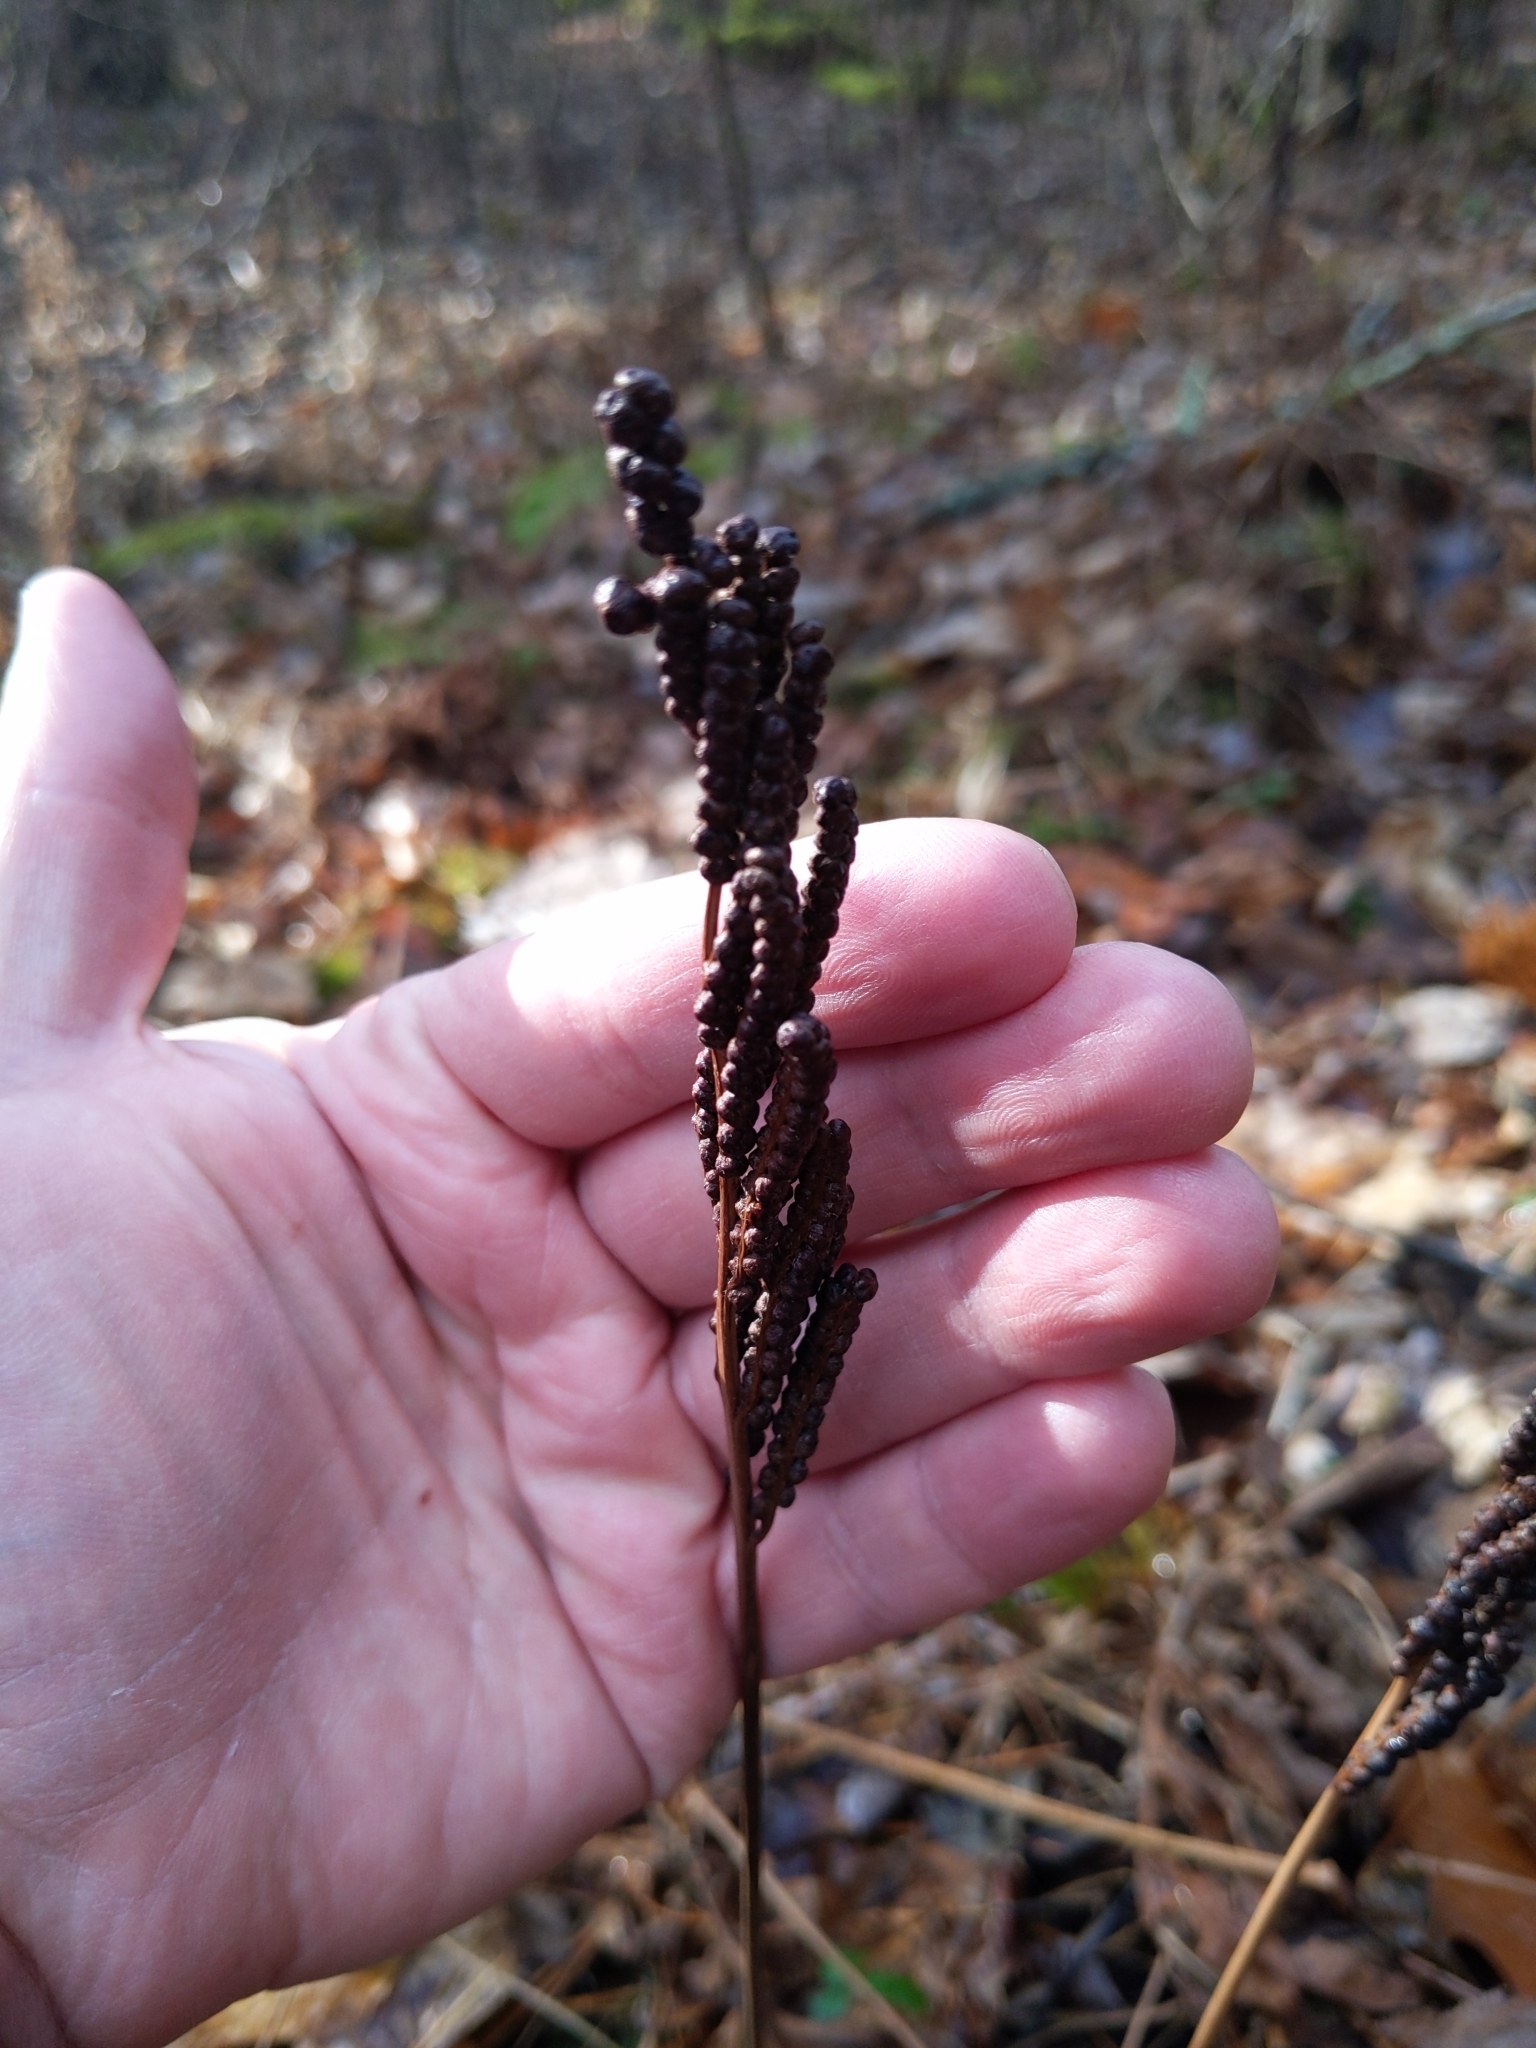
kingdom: Plantae
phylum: Tracheophyta
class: Polypodiopsida
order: Polypodiales
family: Onocleaceae
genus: Onoclea
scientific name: Onoclea sensibilis
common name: Sensitive fern
